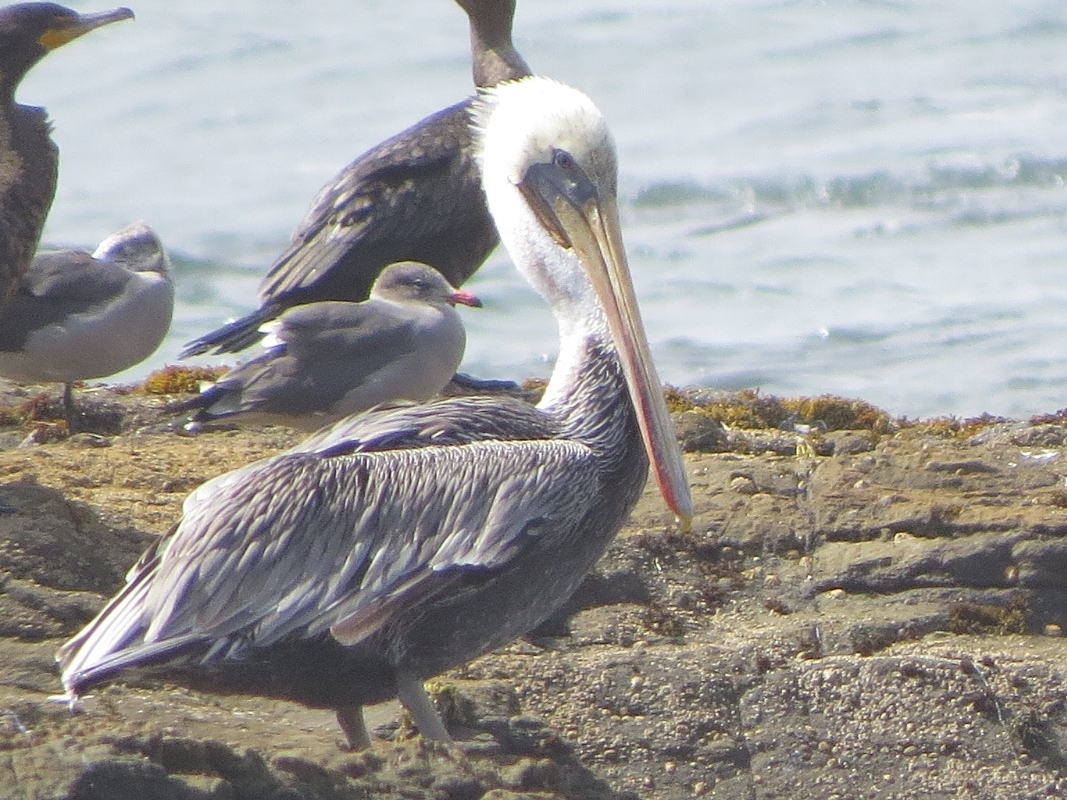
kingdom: Animalia
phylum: Chordata
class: Aves
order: Pelecaniformes
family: Pelecanidae
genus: Pelecanus
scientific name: Pelecanus occidentalis
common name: Brown pelican
